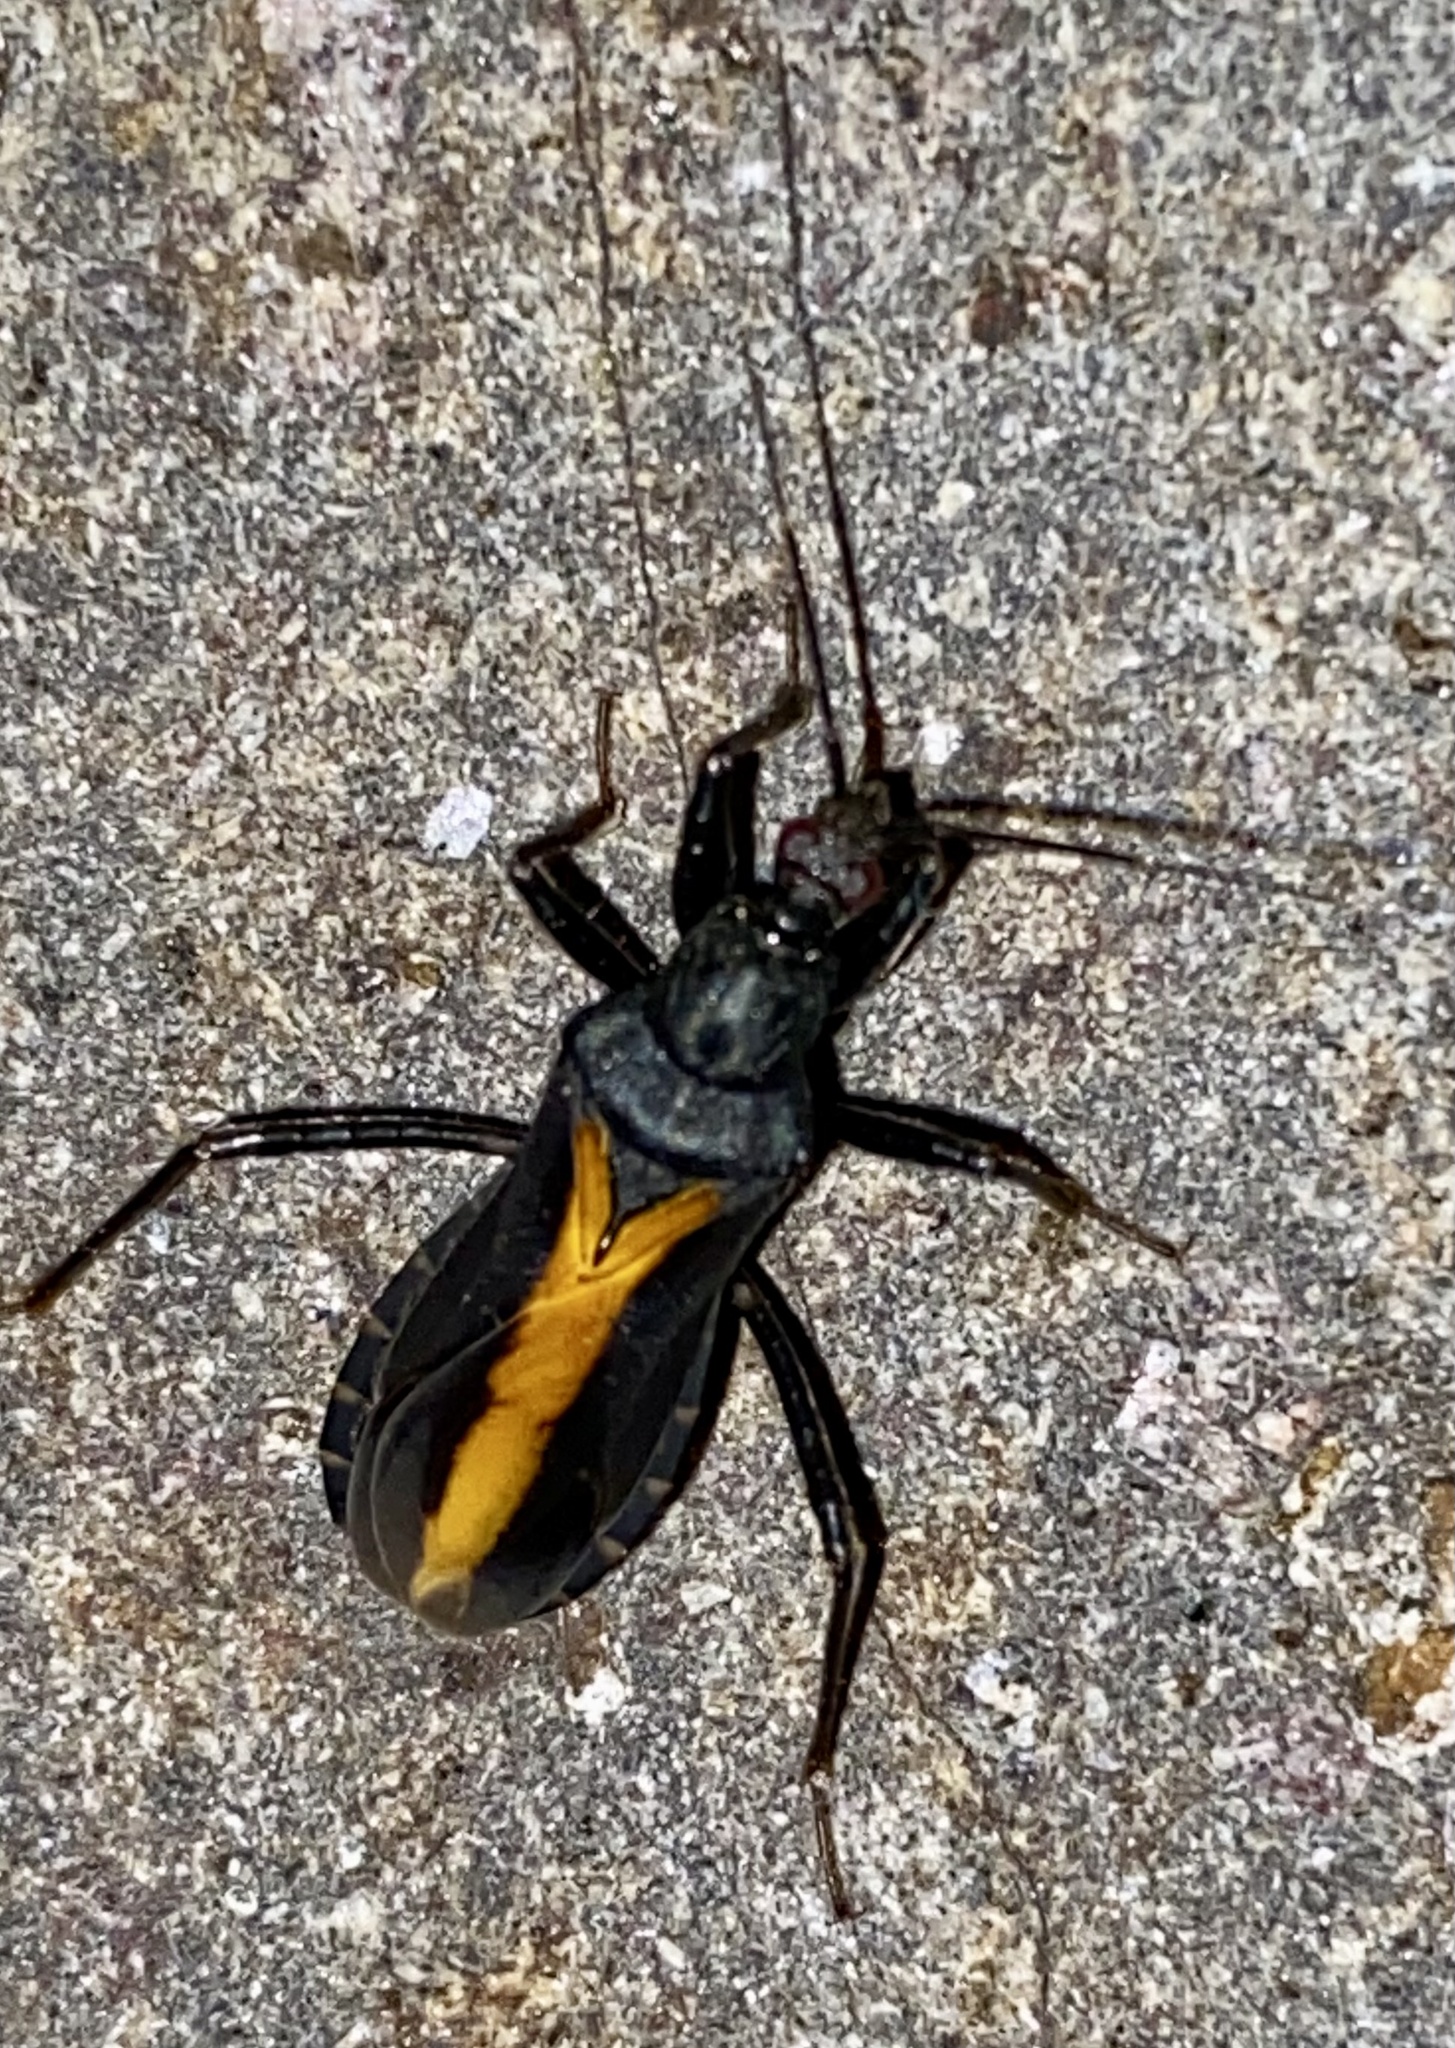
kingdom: Animalia
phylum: Arthropoda
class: Insecta
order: Hemiptera
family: Reduviidae
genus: Rasahus
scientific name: Rasahus flavovittatus
